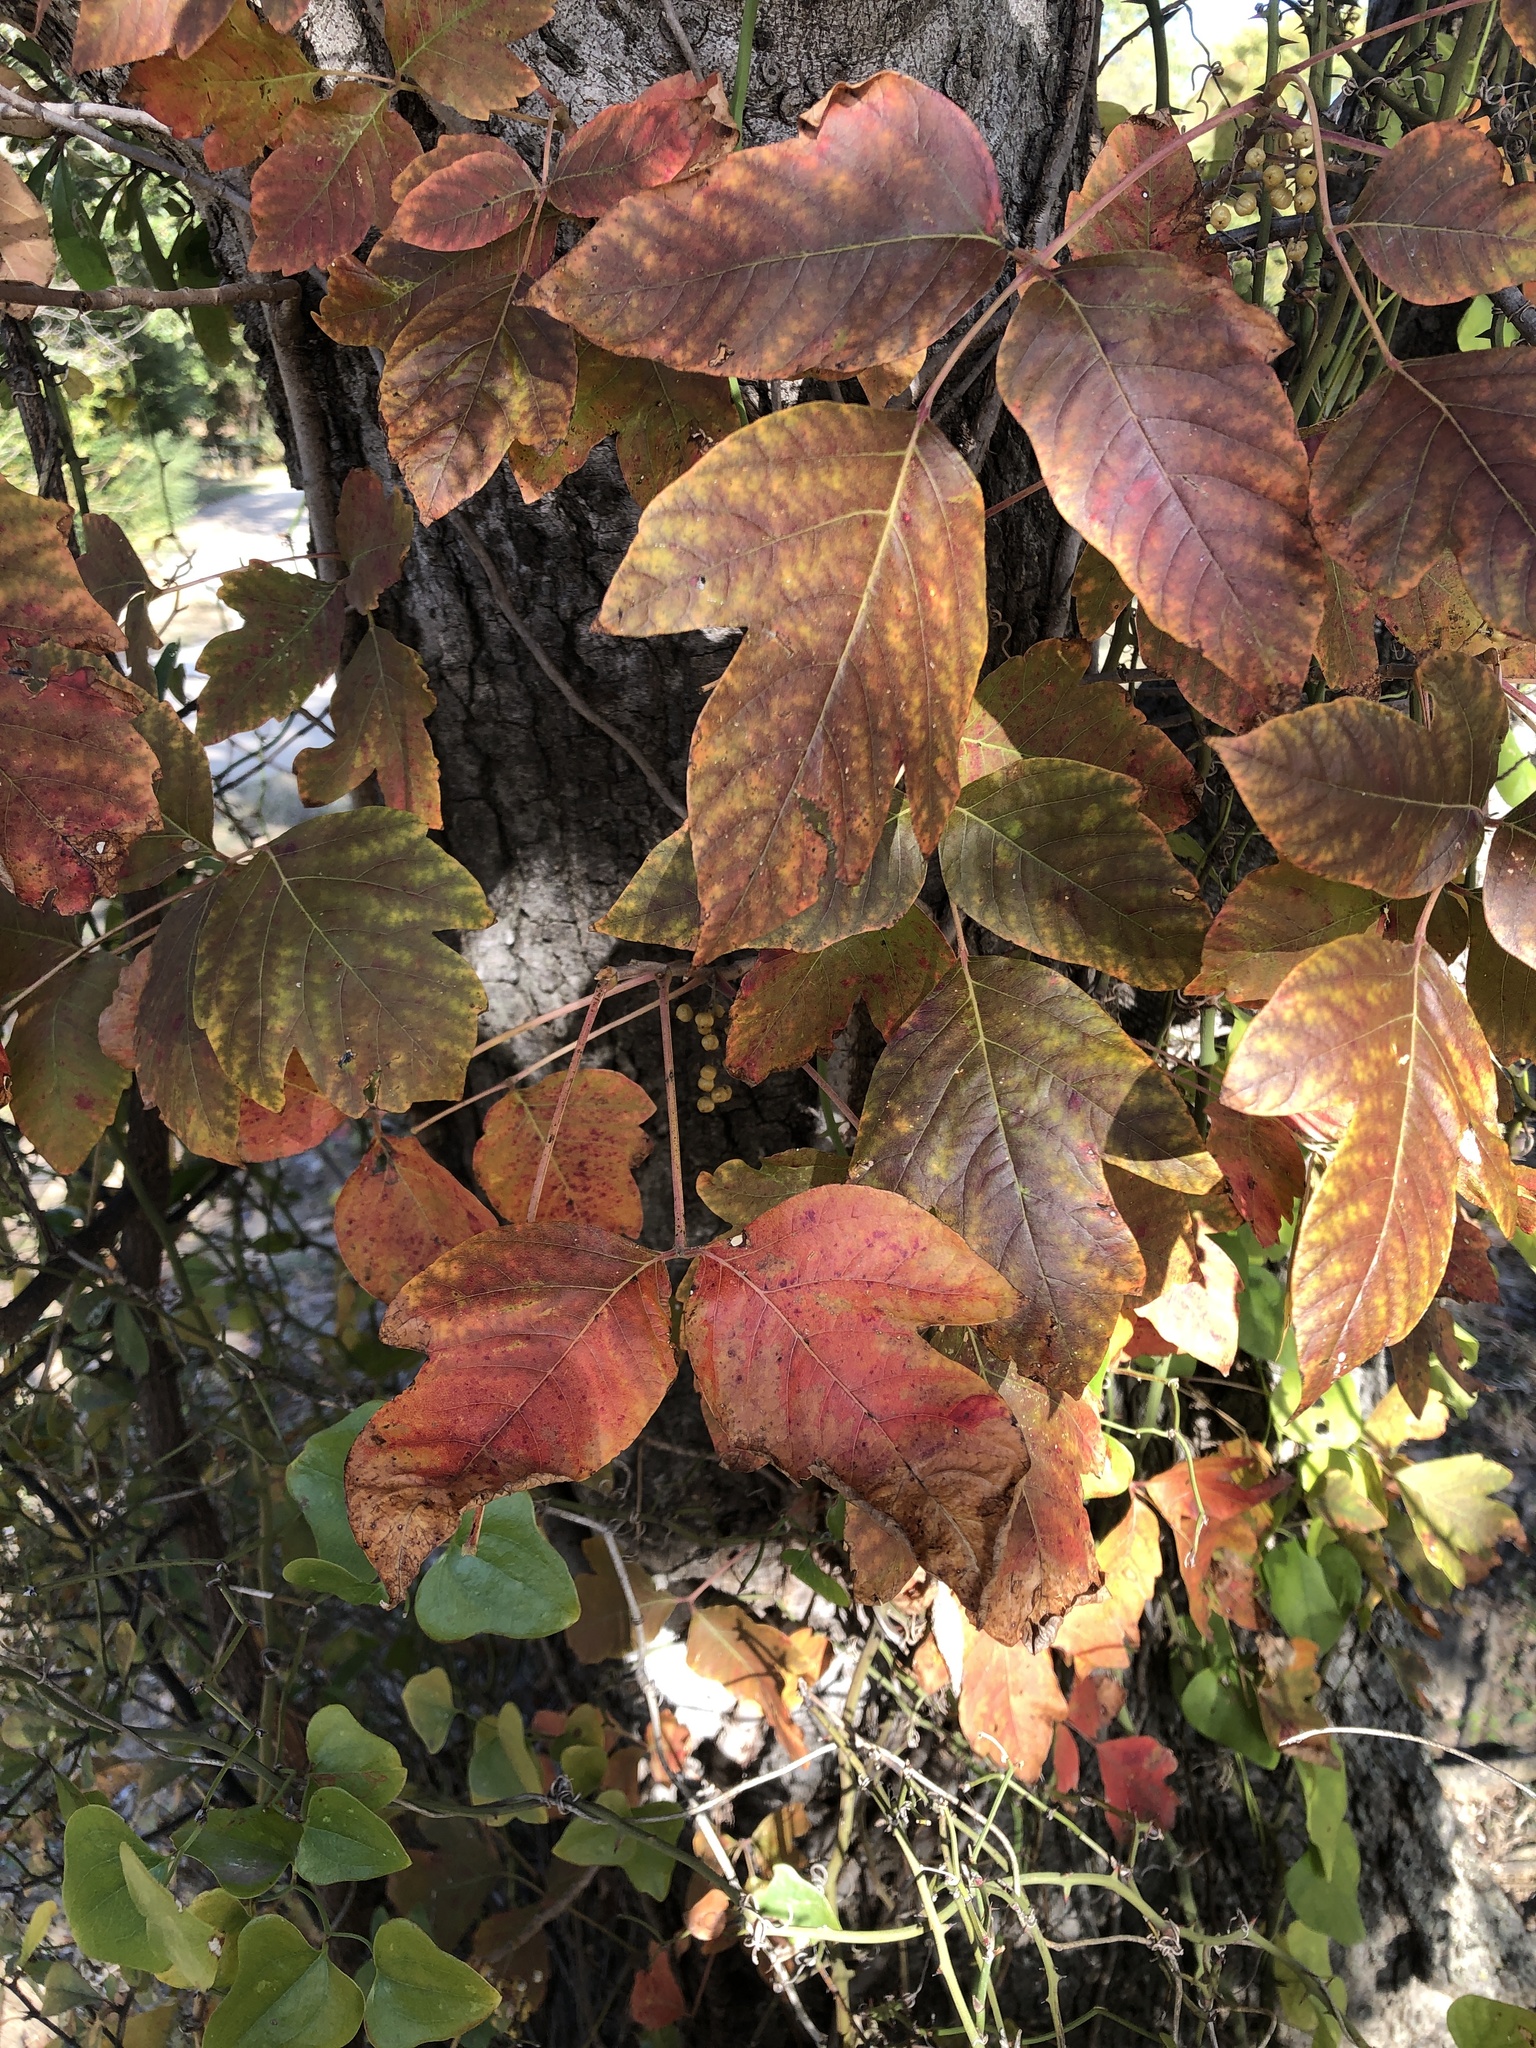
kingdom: Plantae
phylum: Tracheophyta
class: Magnoliopsida
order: Sapindales
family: Anacardiaceae
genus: Toxicodendron
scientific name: Toxicodendron radicans
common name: Poison ivy
